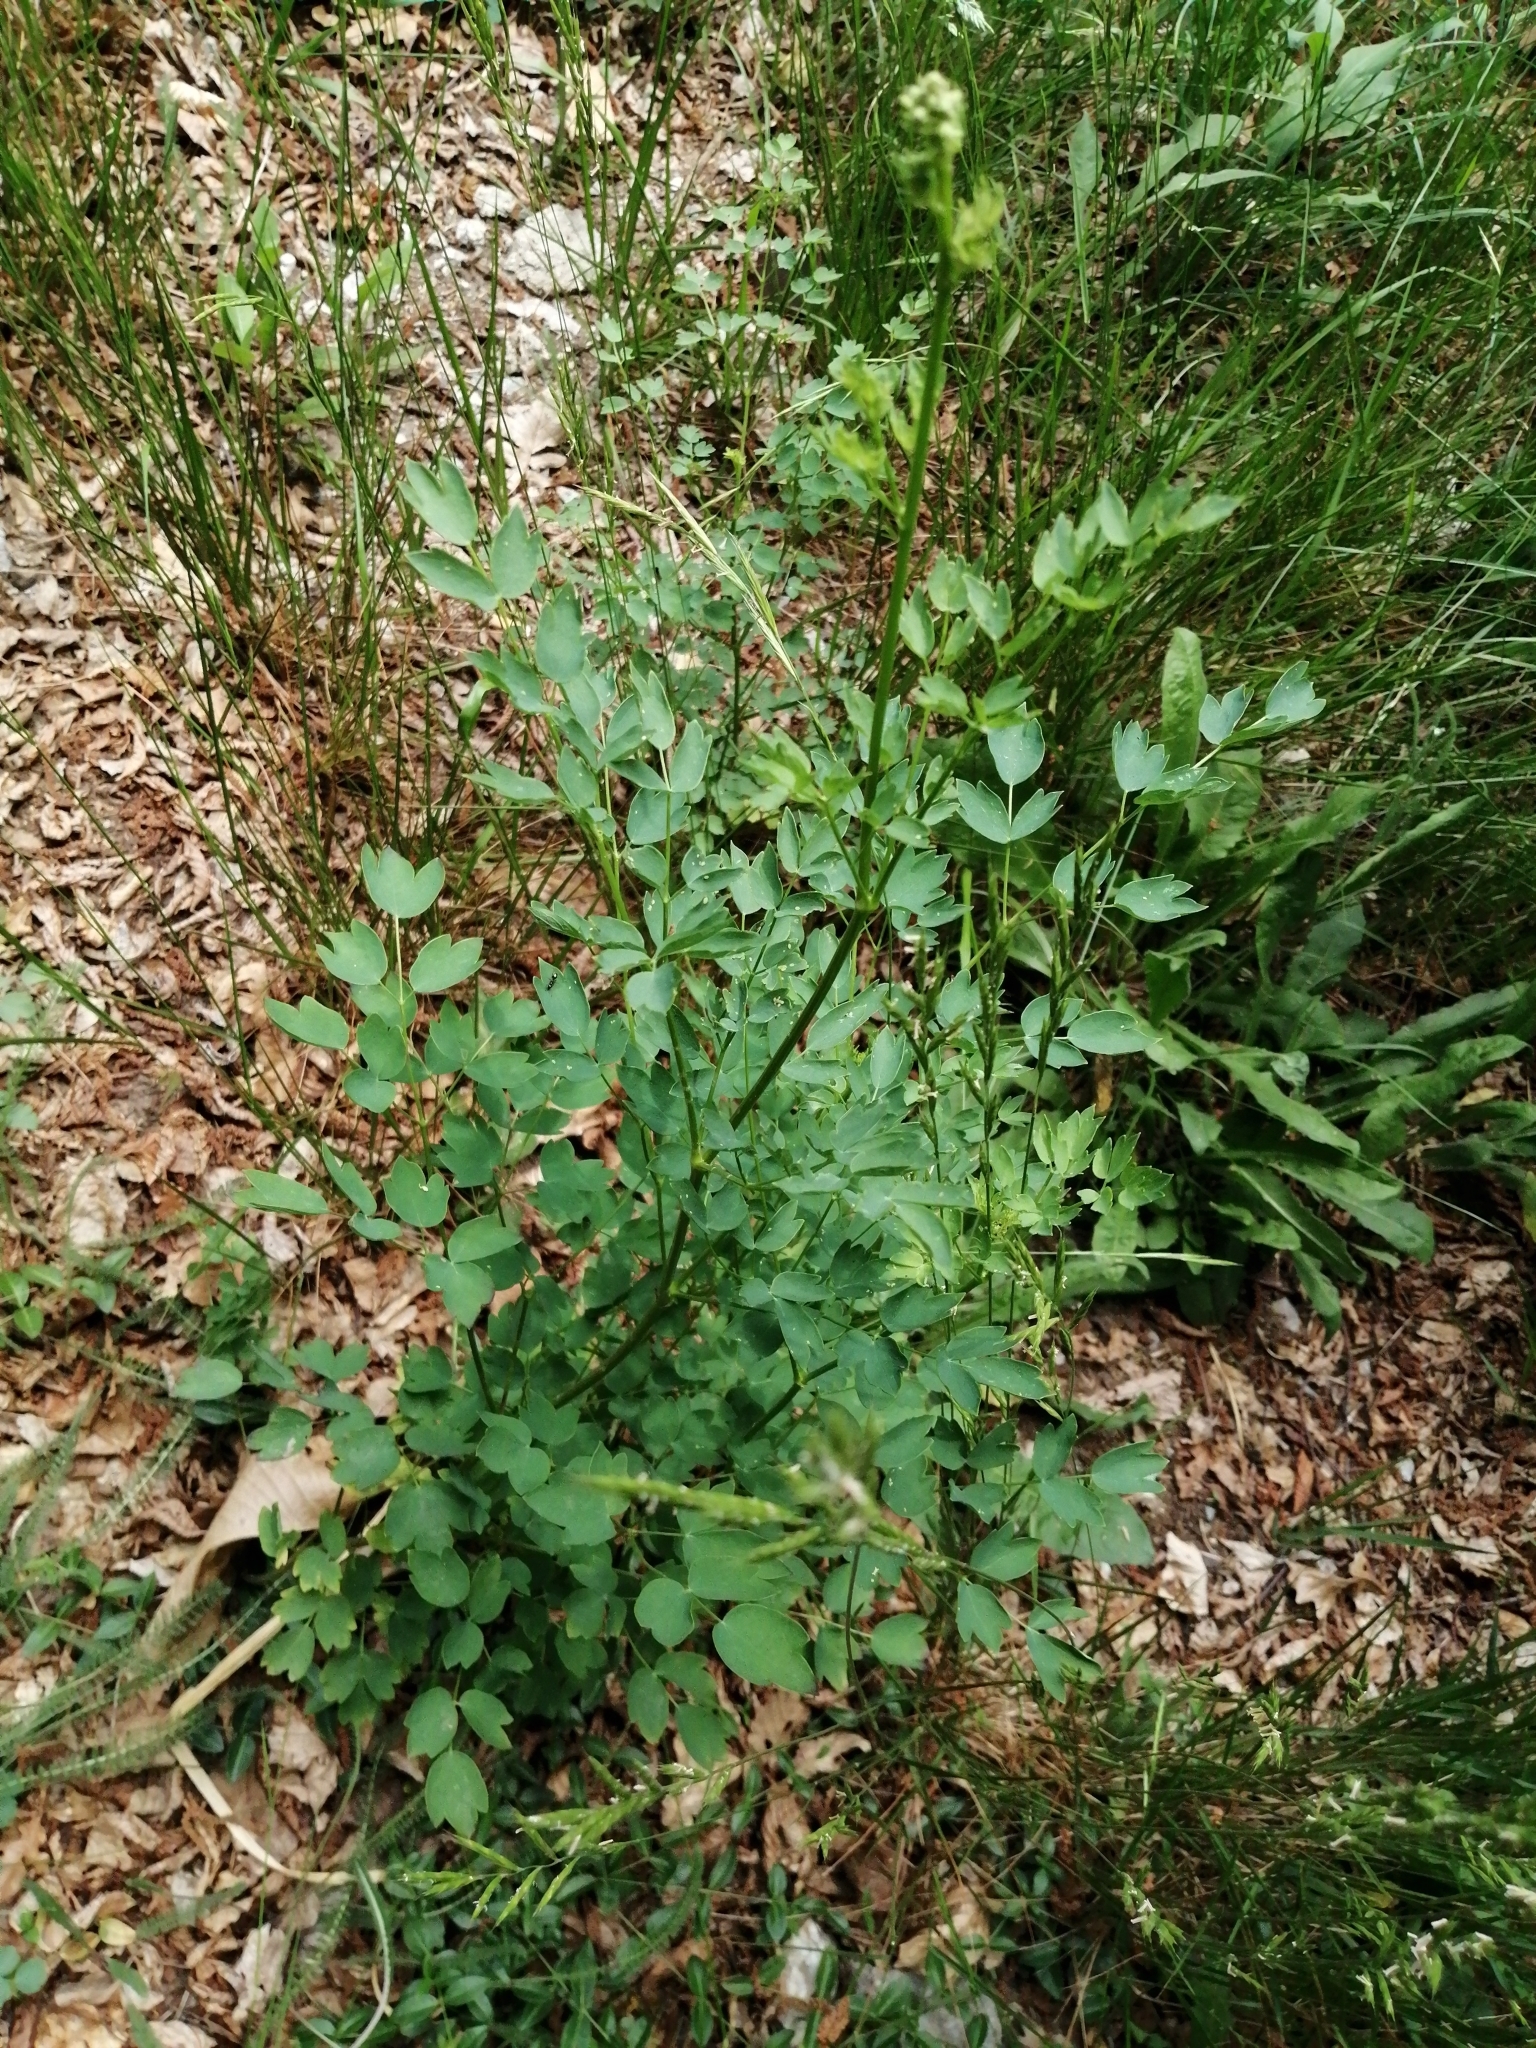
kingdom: Plantae
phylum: Tracheophyta
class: Magnoliopsida
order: Ranunculales
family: Ranunculaceae
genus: Thalictrum
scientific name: Thalictrum aquilegiifolium
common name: French meadow-rue
